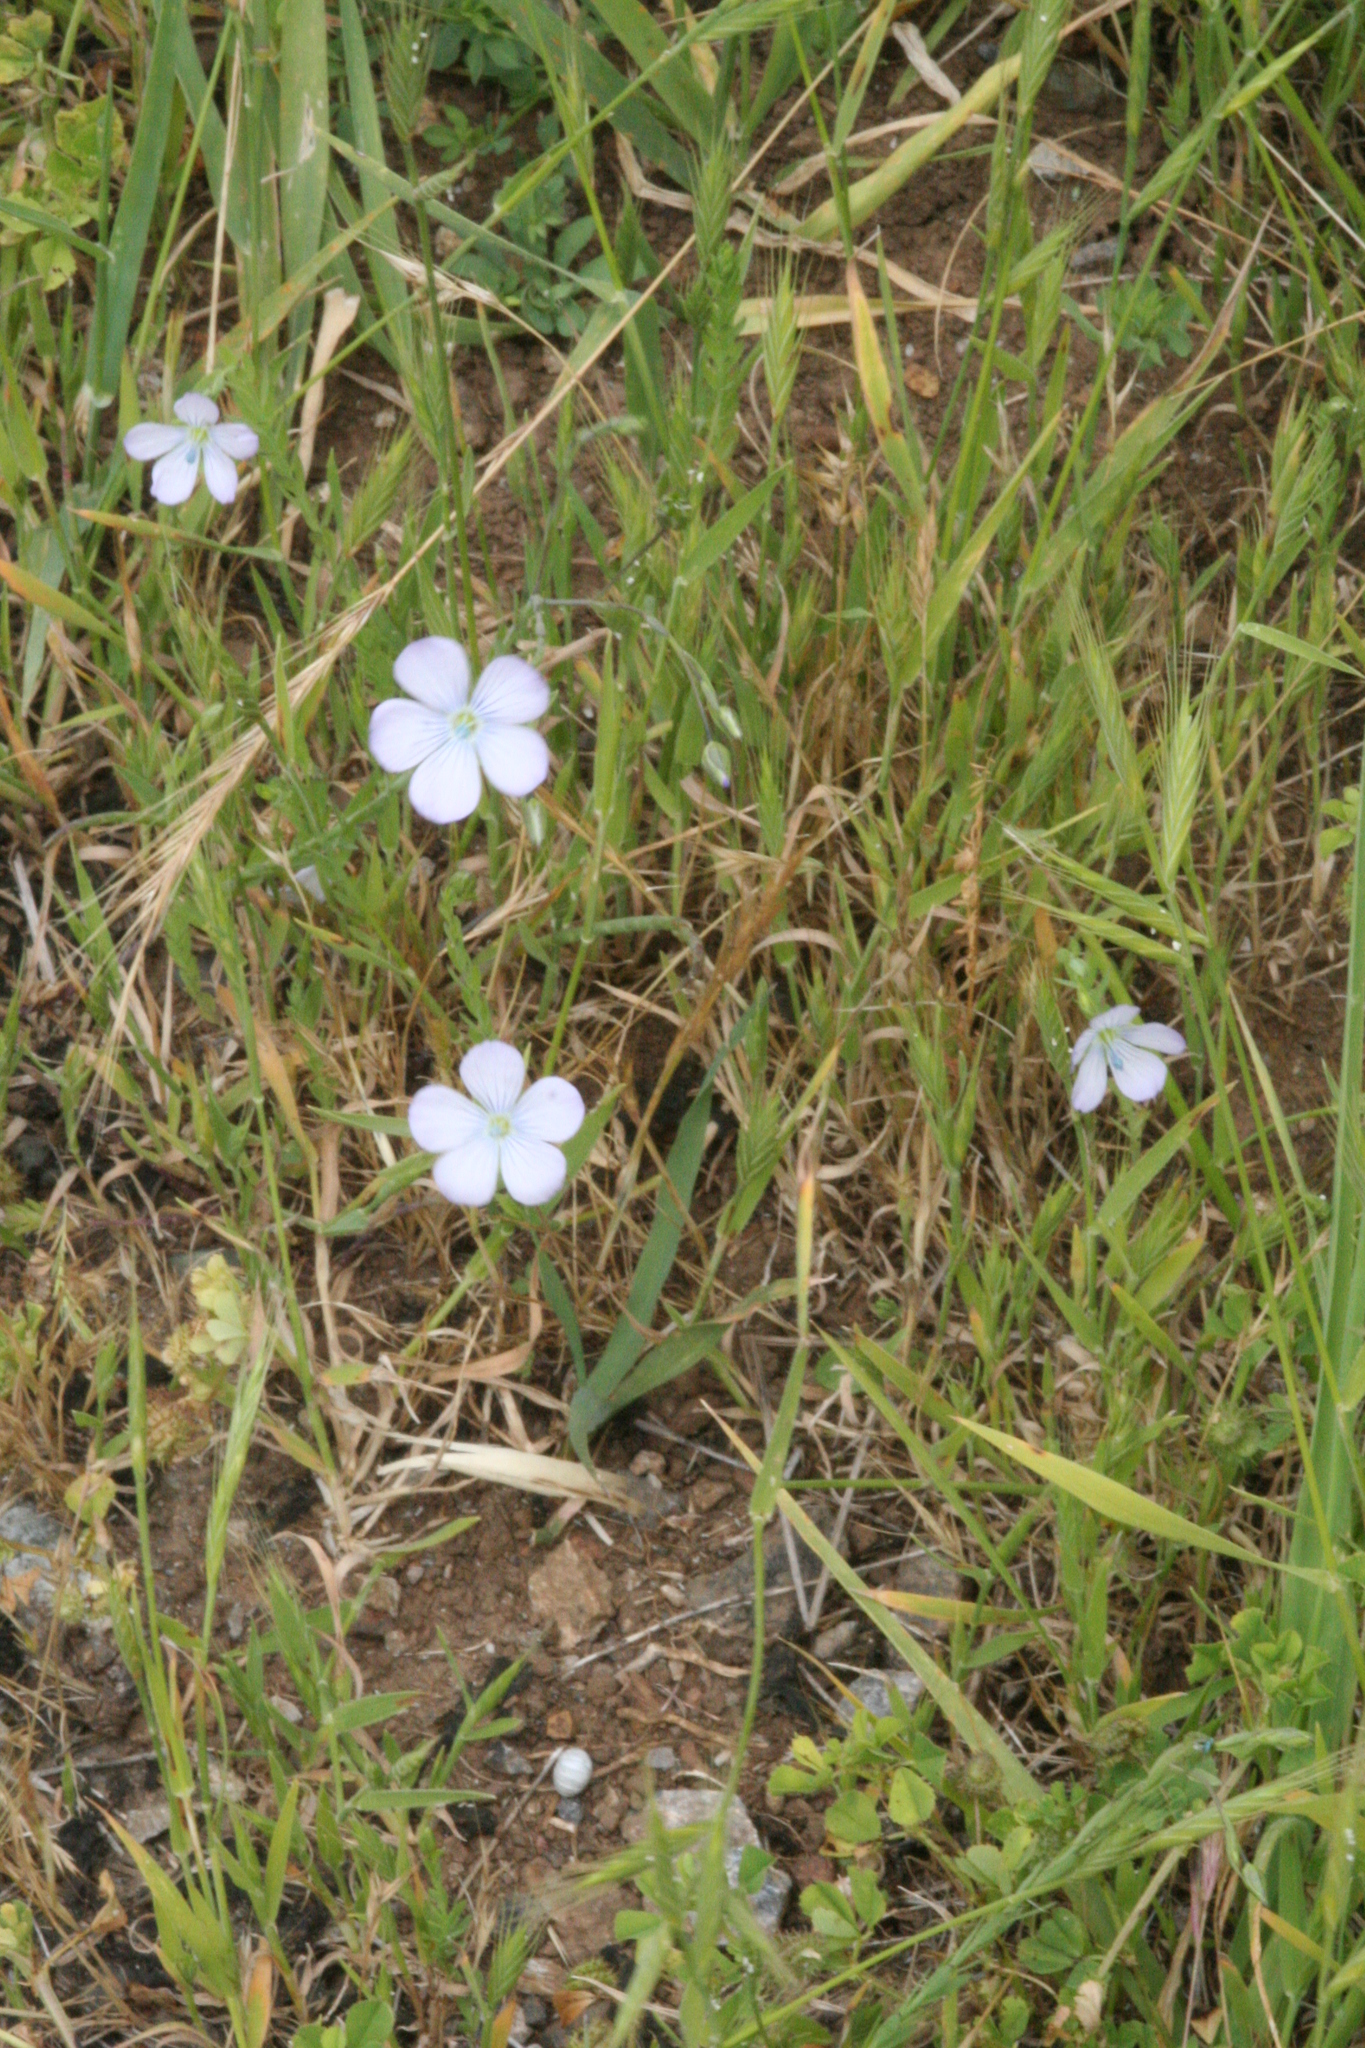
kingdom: Plantae
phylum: Tracheophyta
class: Magnoliopsida
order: Malpighiales
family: Linaceae
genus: Linum
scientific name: Linum bienne
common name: Pale flax
